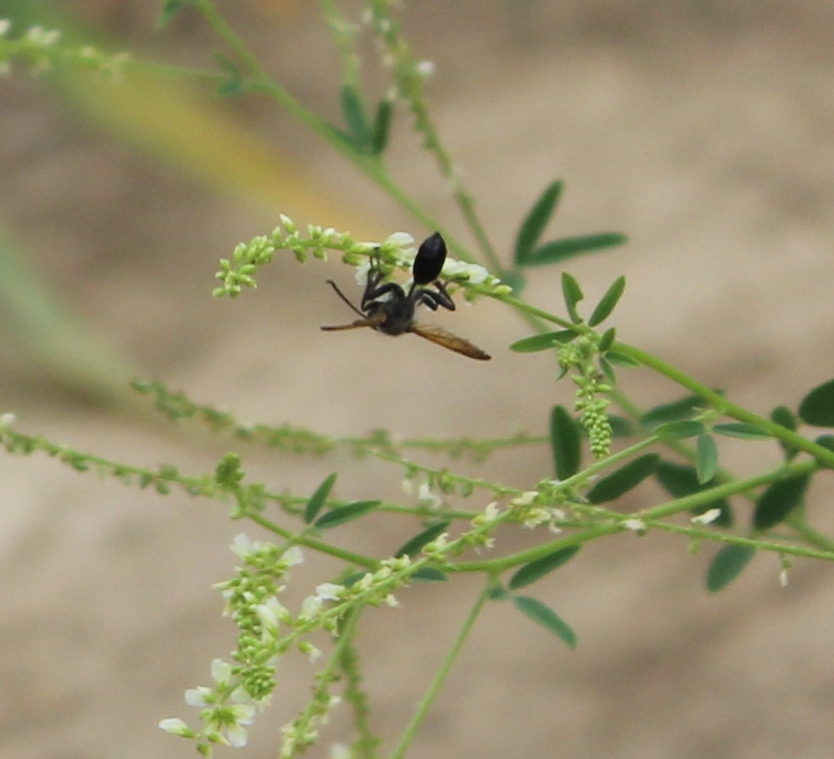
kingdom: Animalia
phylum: Arthropoda
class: Insecta
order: Hymenoptera
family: Sphecidae
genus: Isodontia
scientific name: Isodontia elegans
